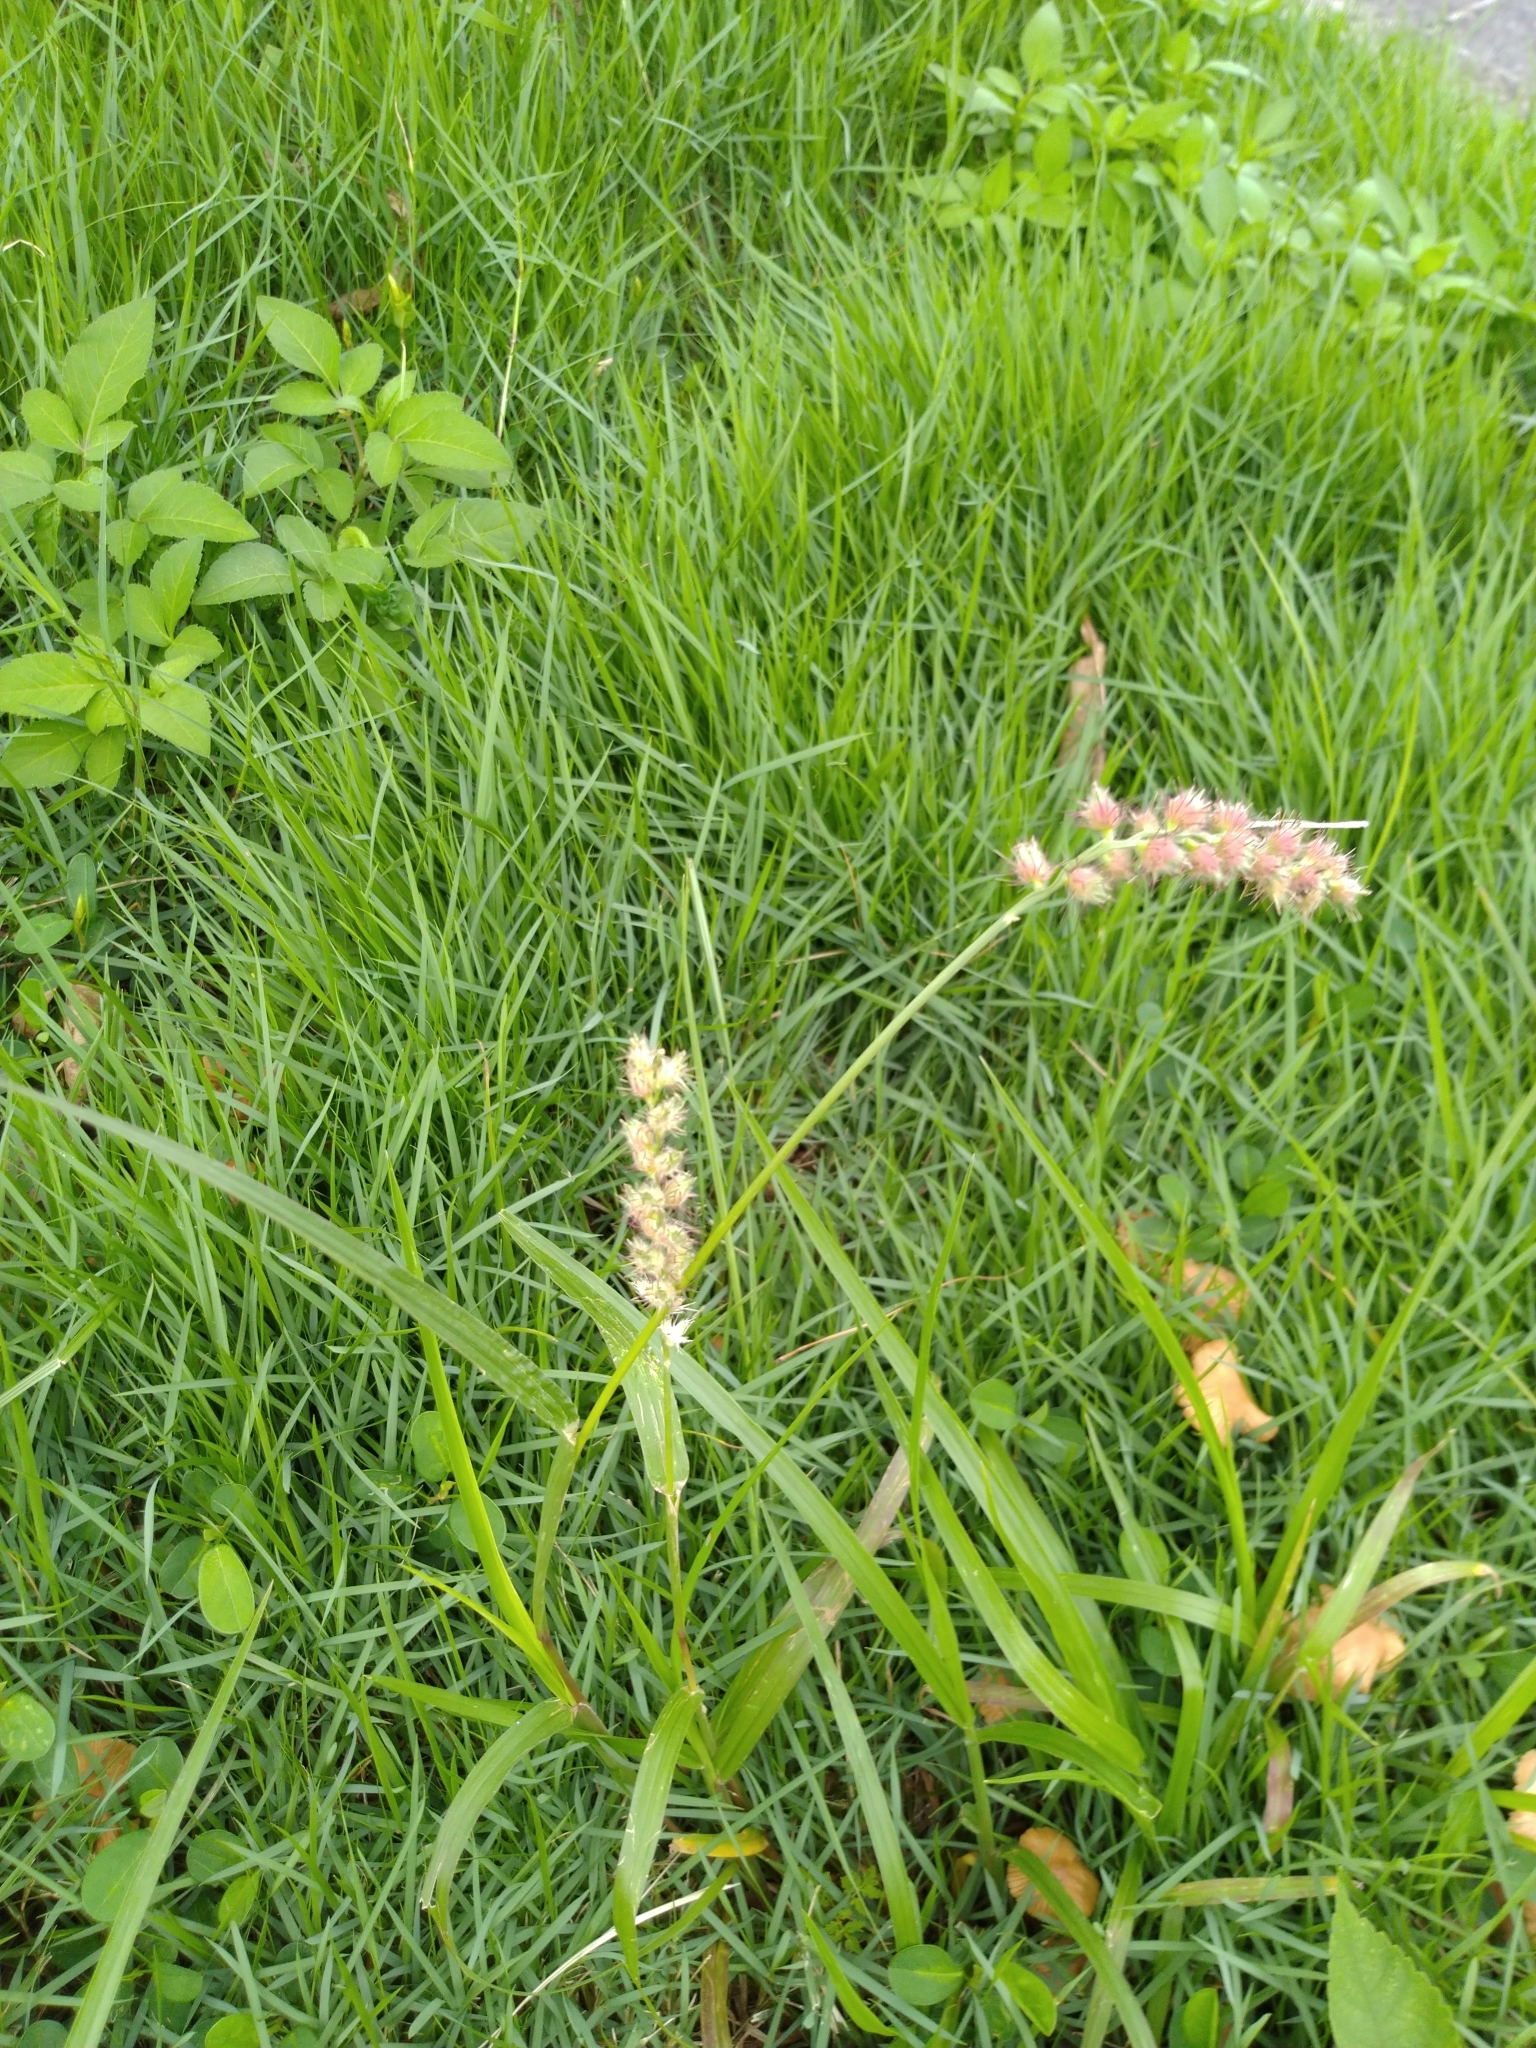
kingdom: Plantae
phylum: Tracheophyta
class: Liliopsida
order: Poales
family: Poaceae
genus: Cenchrus
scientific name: Cenchrus echinatus
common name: Southern sandbur
